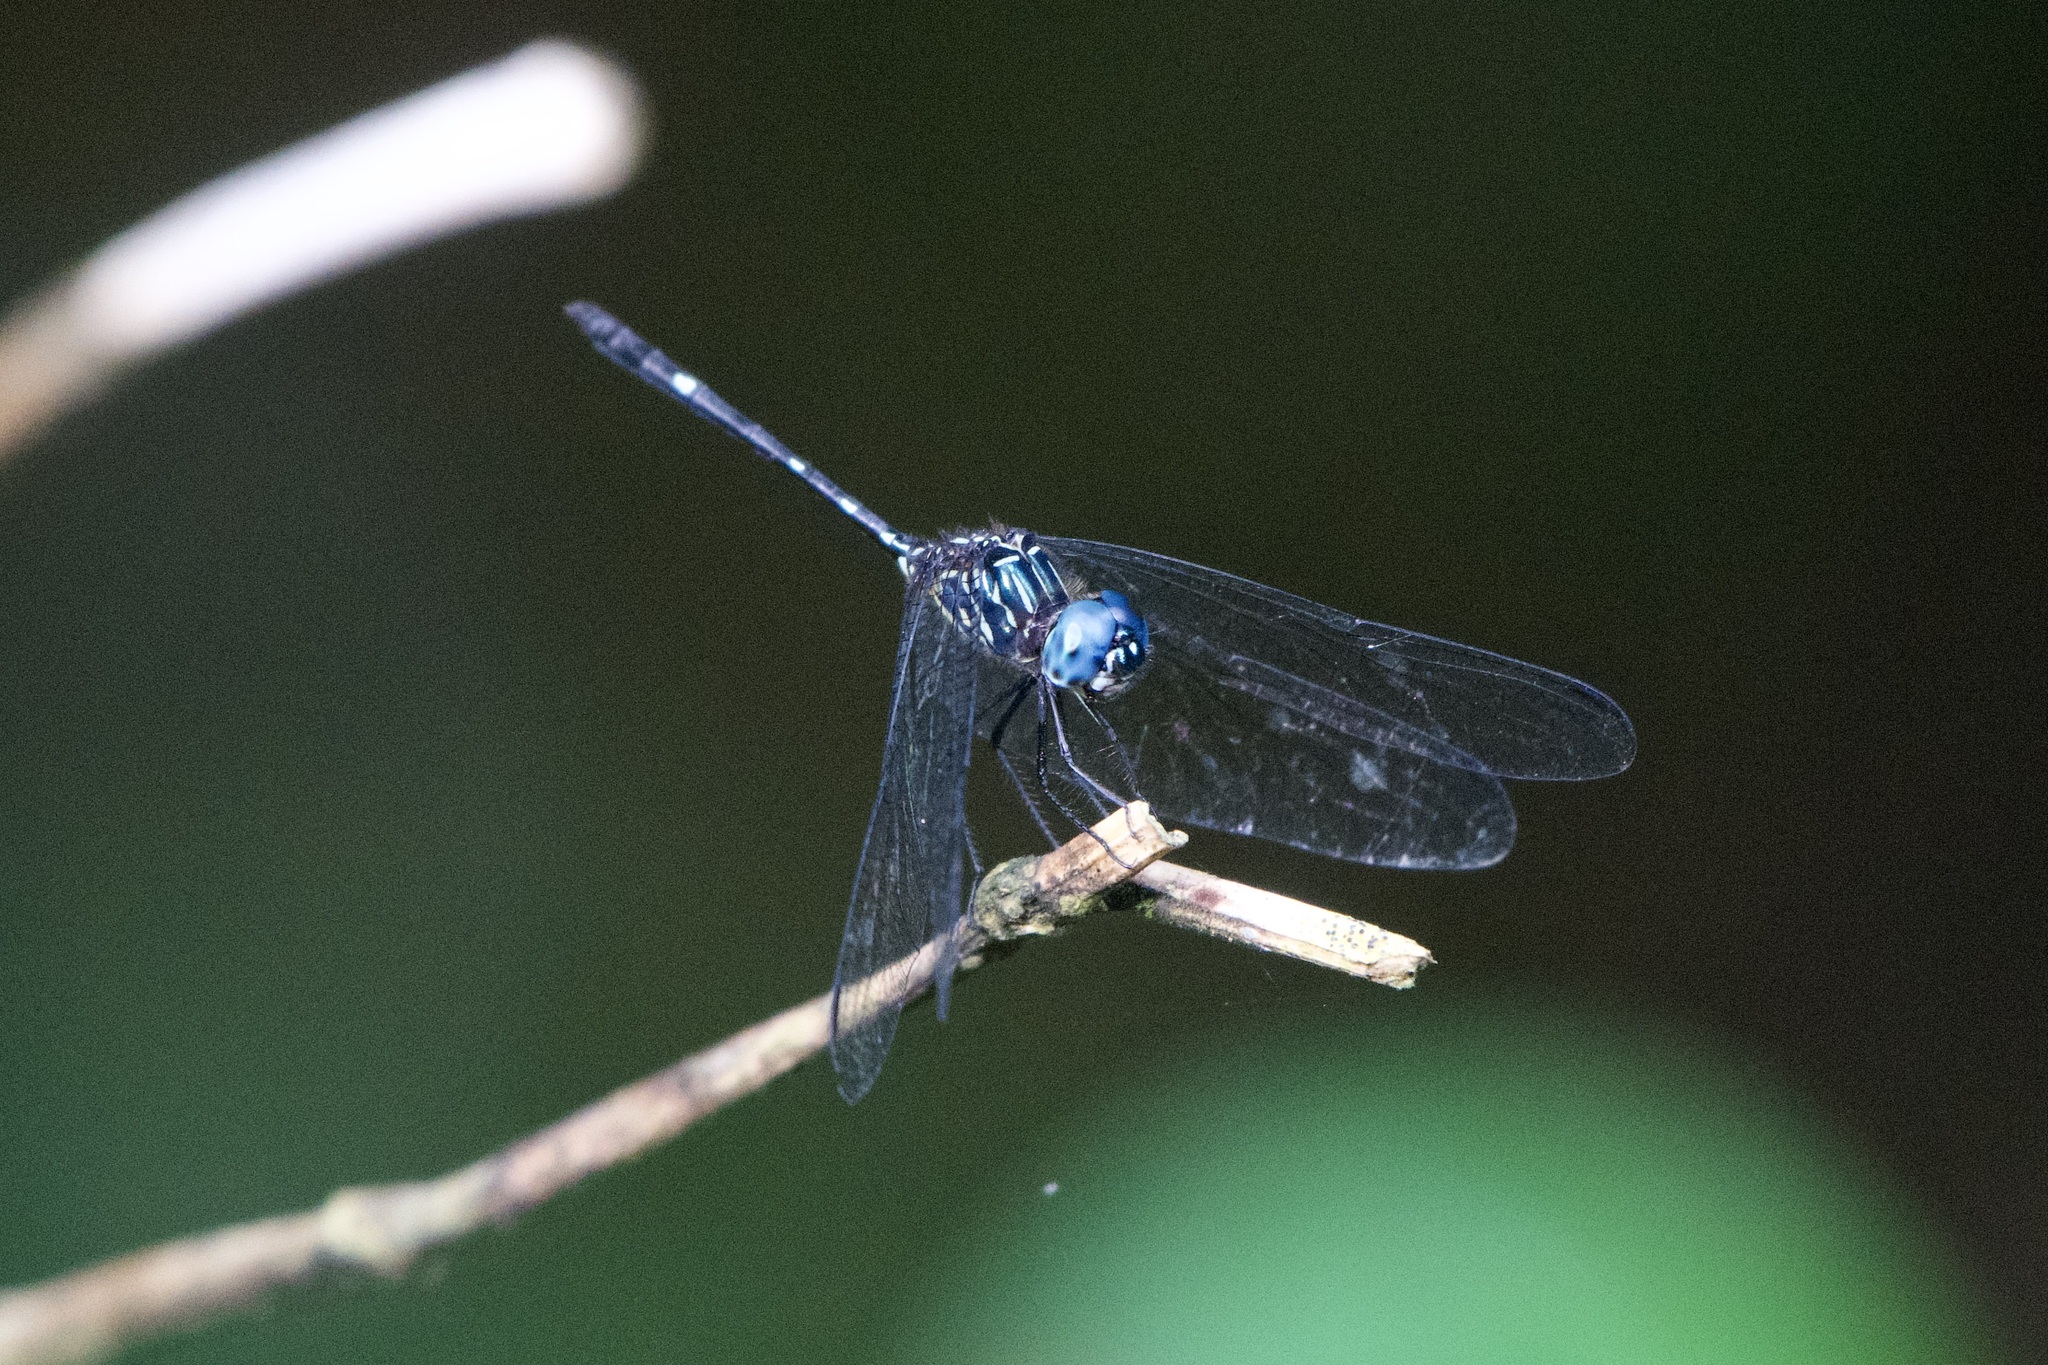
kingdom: Animalia
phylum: Arthropoda
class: Insecta
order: Odonata
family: Libellulidae
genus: Dythemis
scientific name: Dythemis nigra
